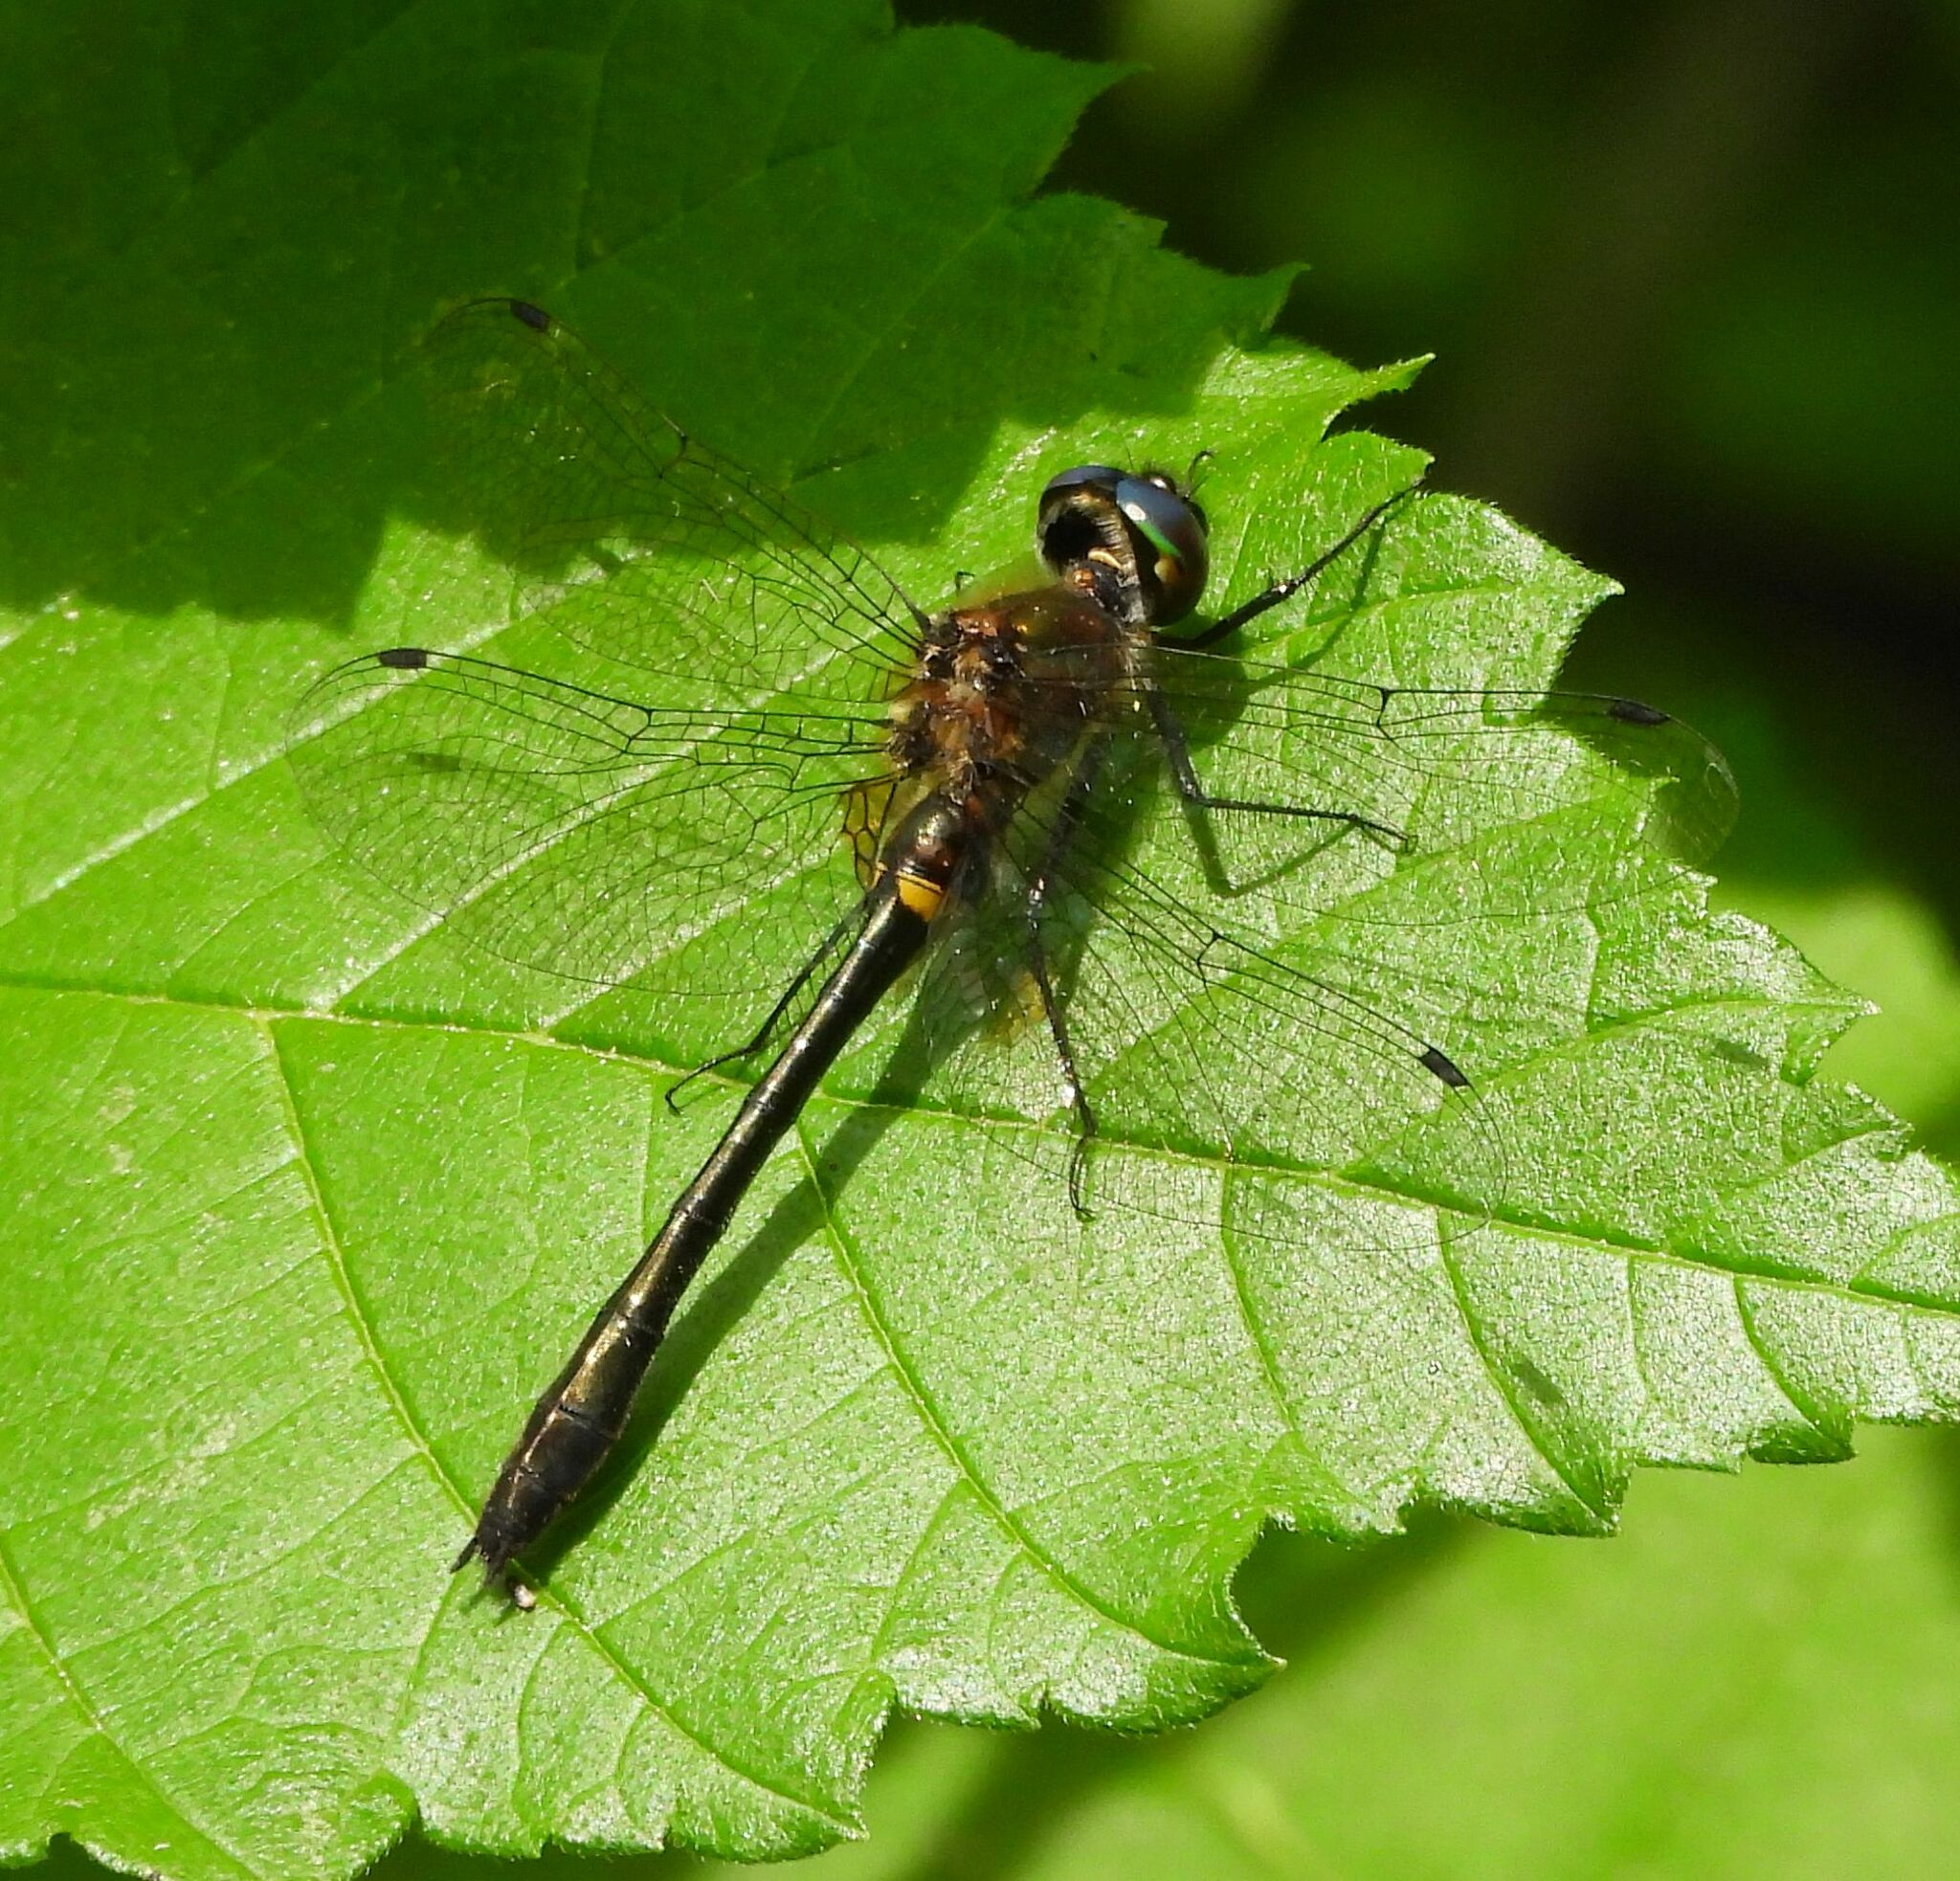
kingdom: Animalia
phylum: Arthropoda
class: Insecta
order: Odonata
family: Corduliidae
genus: Dorocordulia
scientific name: Dorocordulia libera
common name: Racket-tailed emerald
